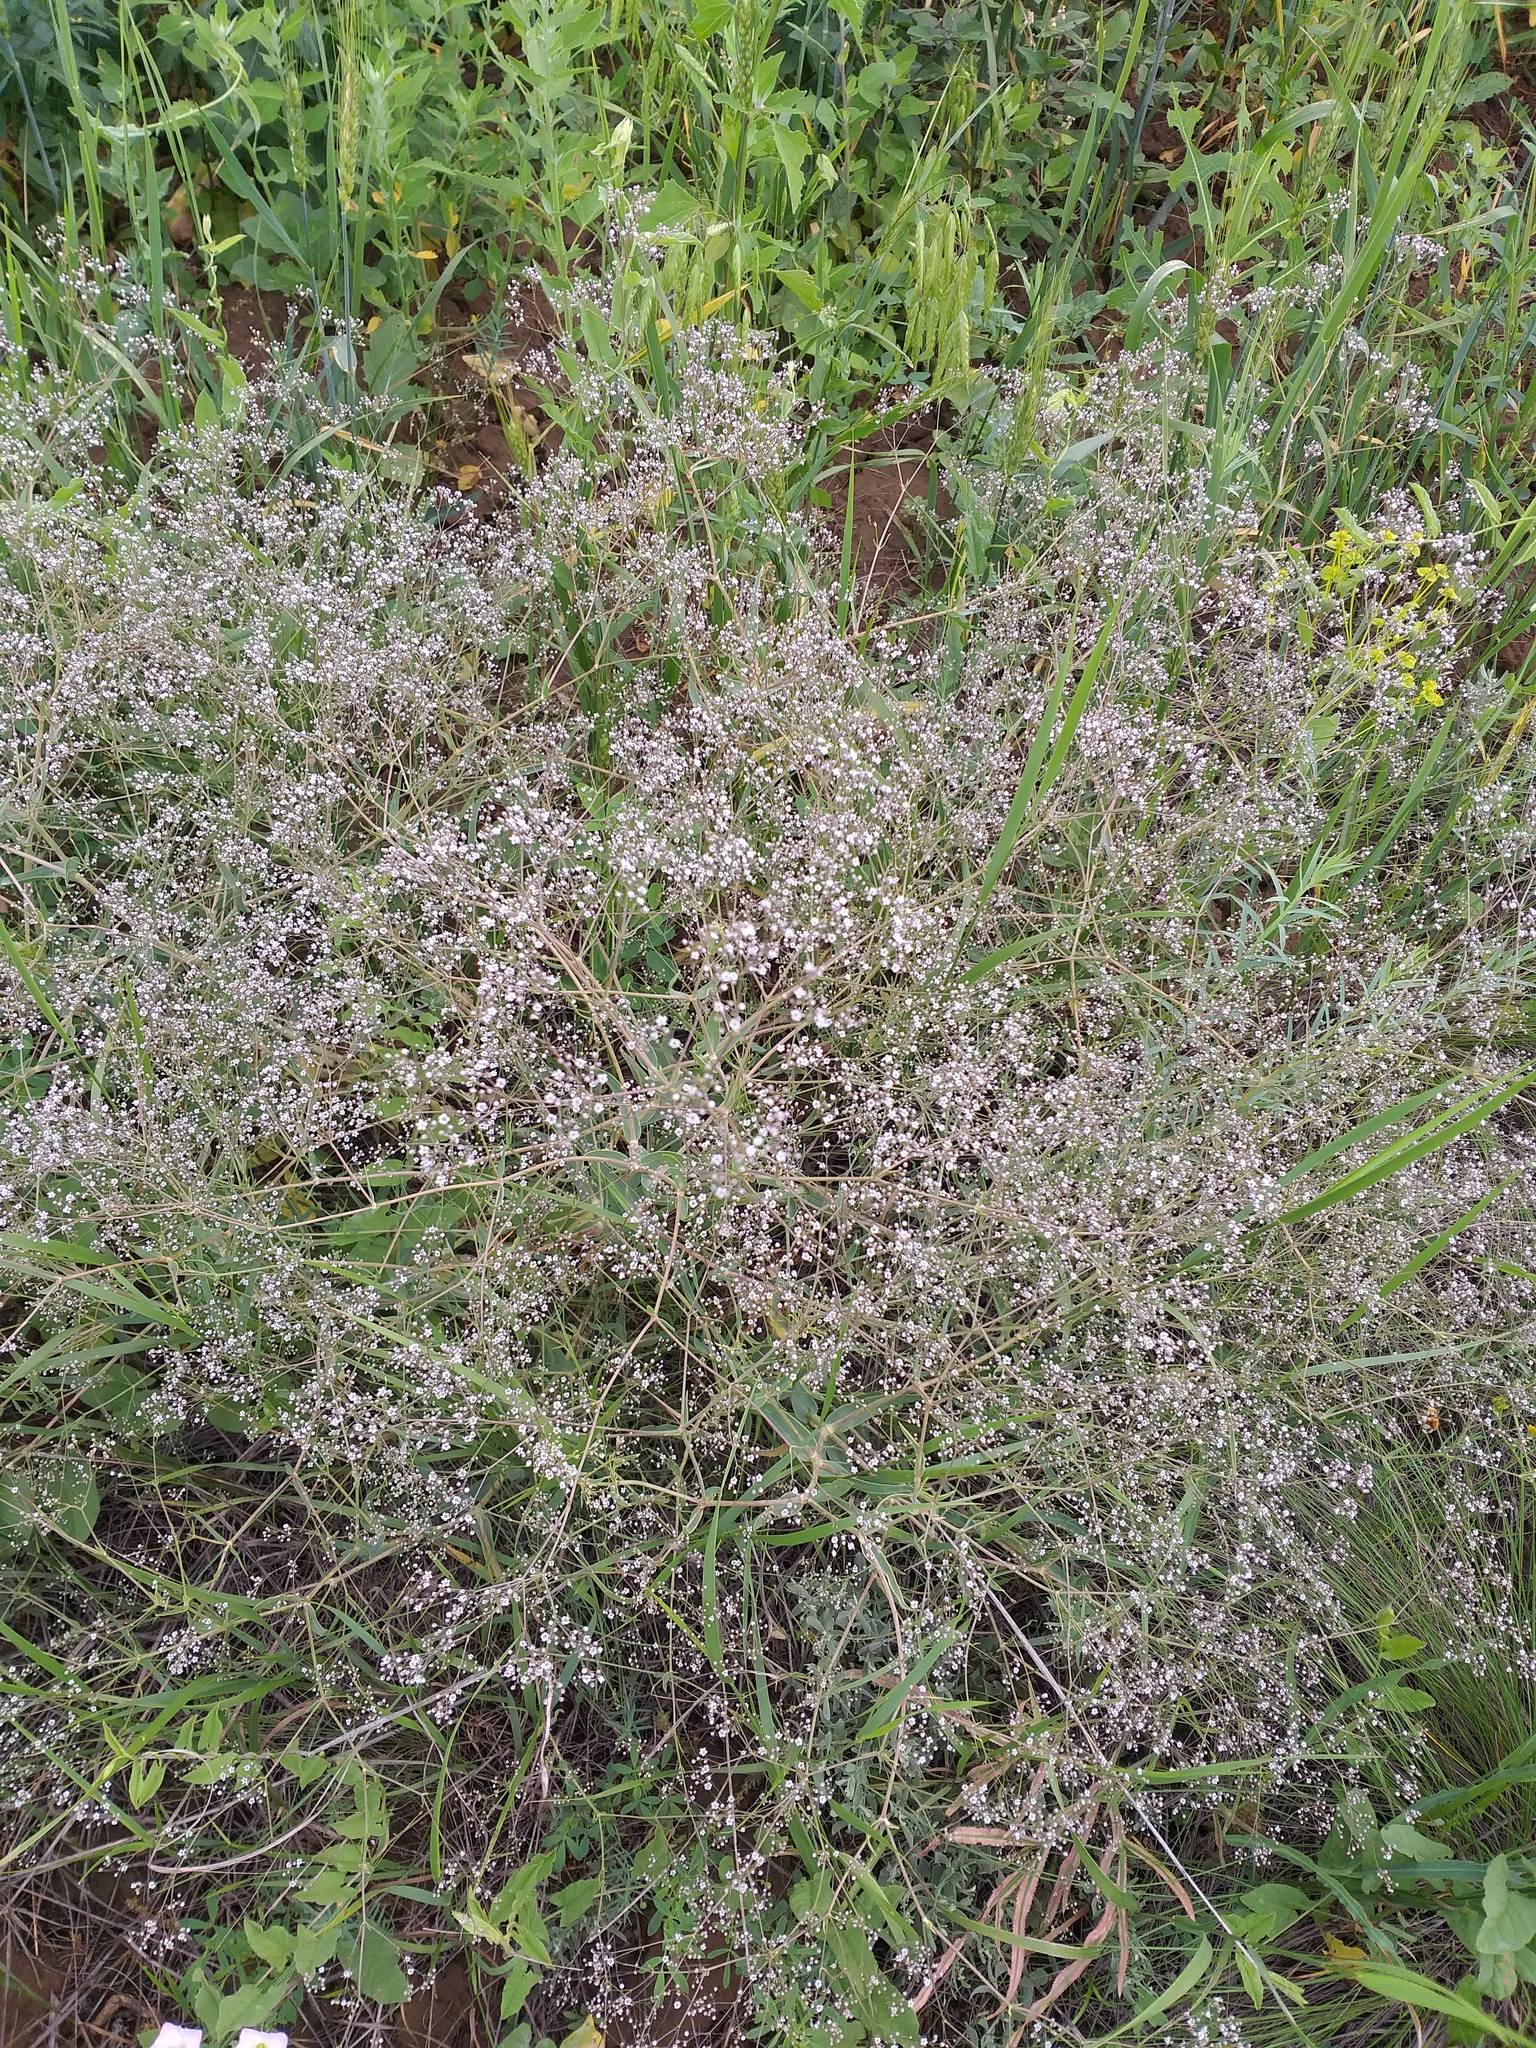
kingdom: Plantae
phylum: Tracheophyta
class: Magnoliopsida
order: Caryophyllales
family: Caryophyllaceae
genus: Gypsophila
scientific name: Gypsophila paniculata
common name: Baby's-breath
